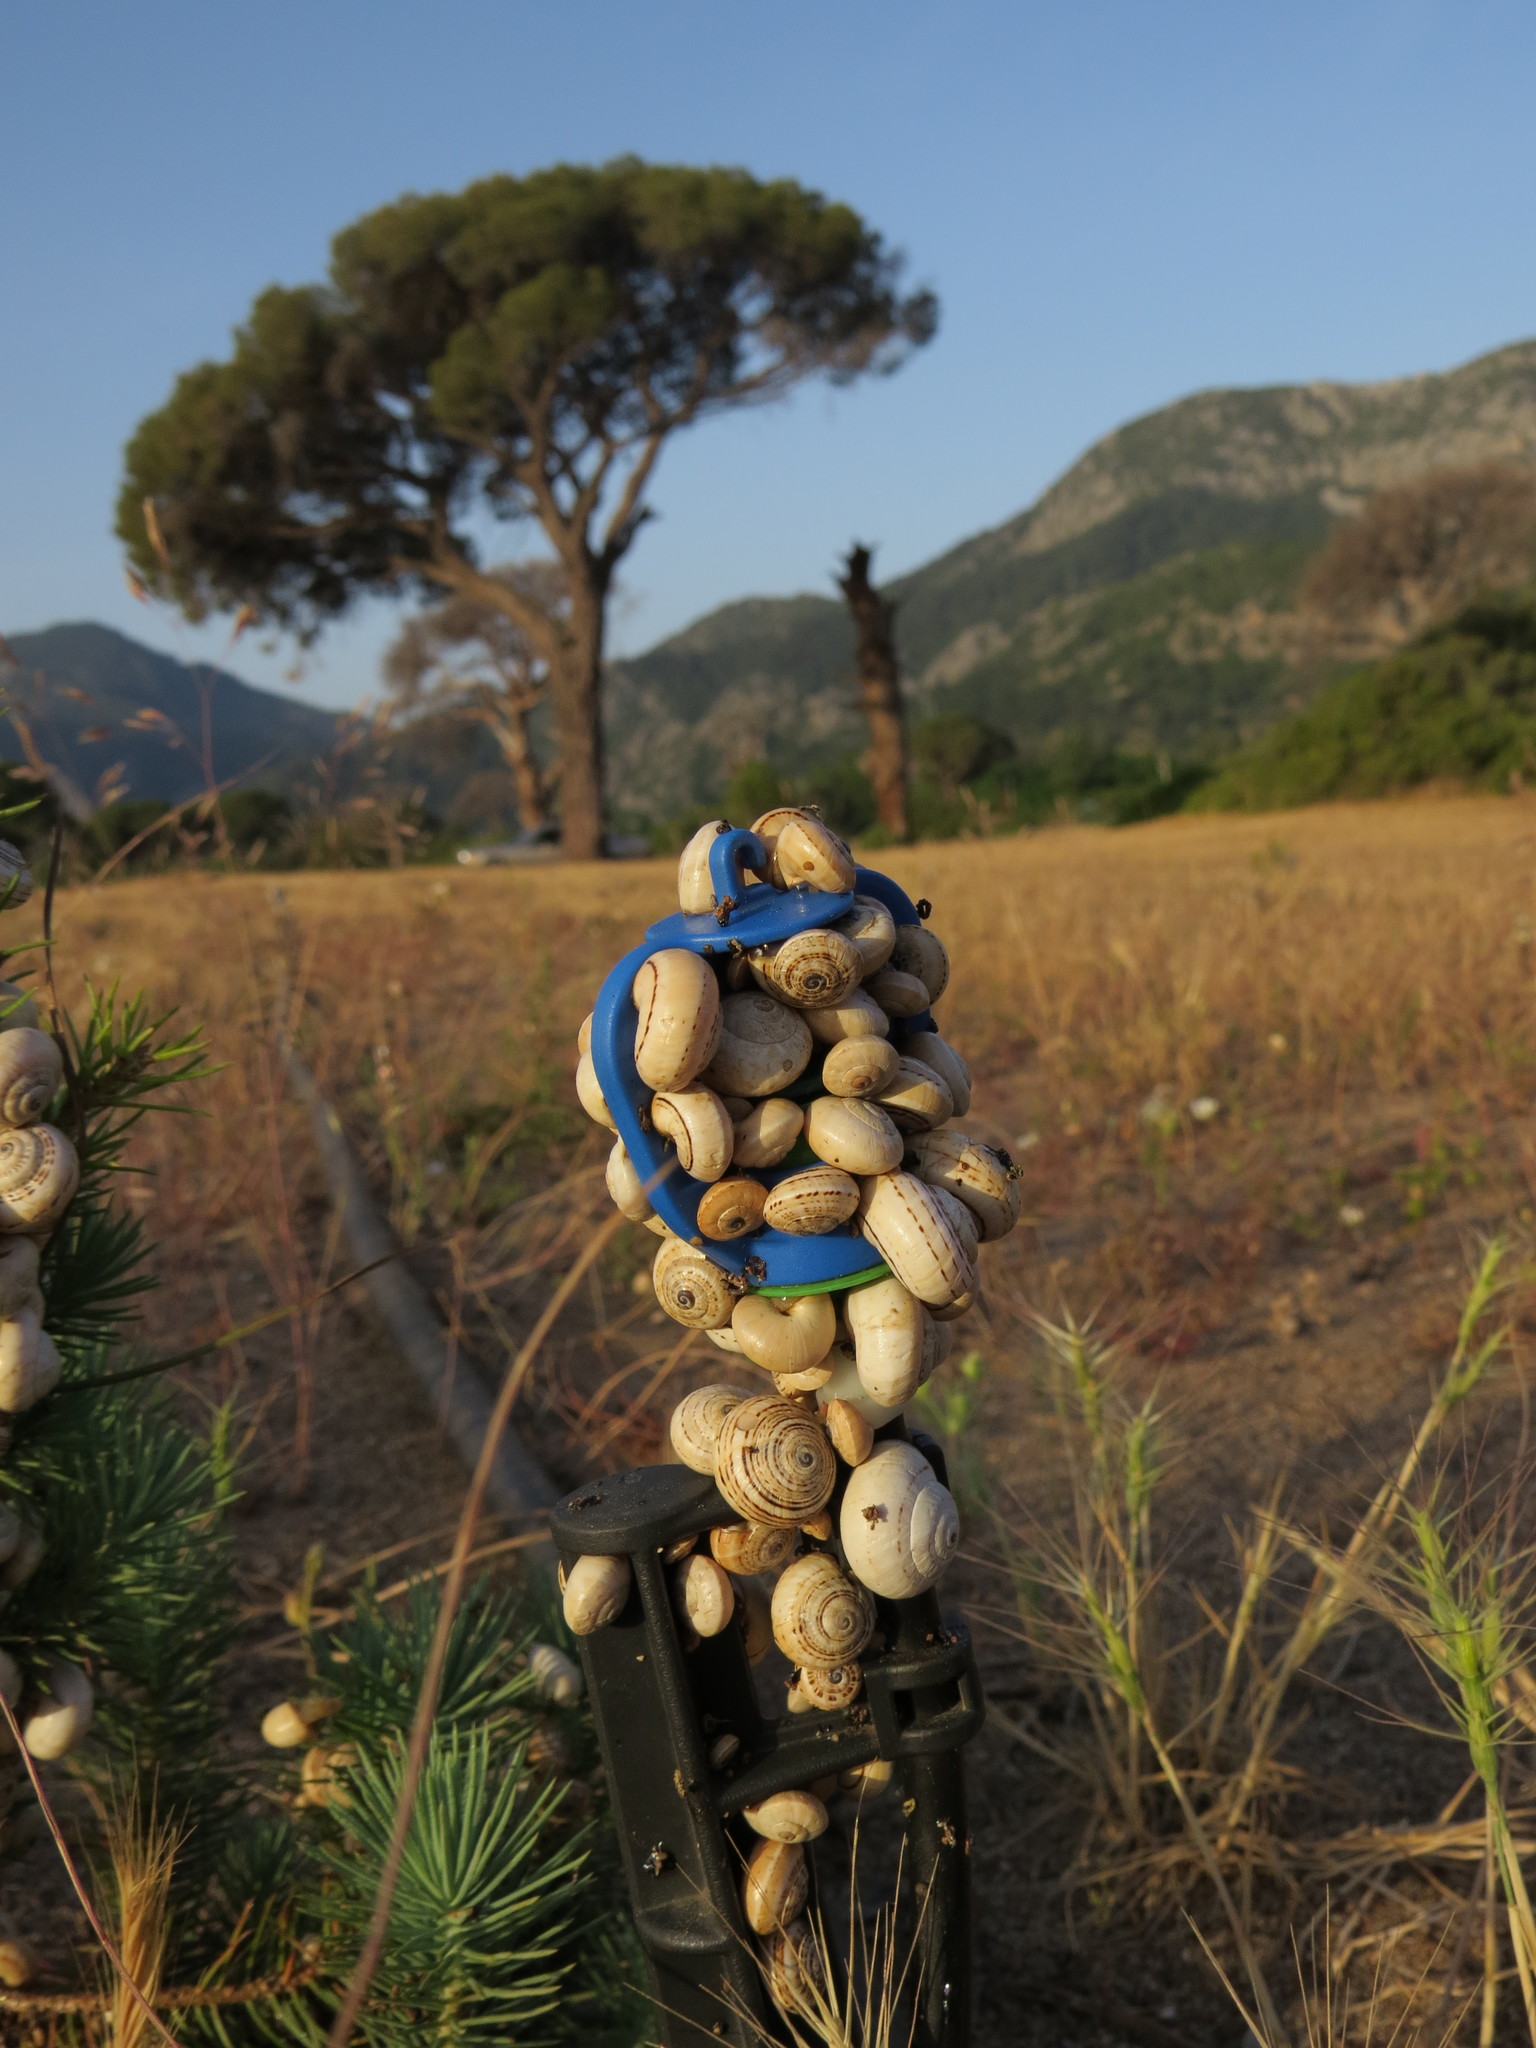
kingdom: Animalia
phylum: Mollusca
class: Gastropoda
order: Stylommatophora
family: Helicidae
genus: Theba
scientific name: Theba pisana
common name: White snail
